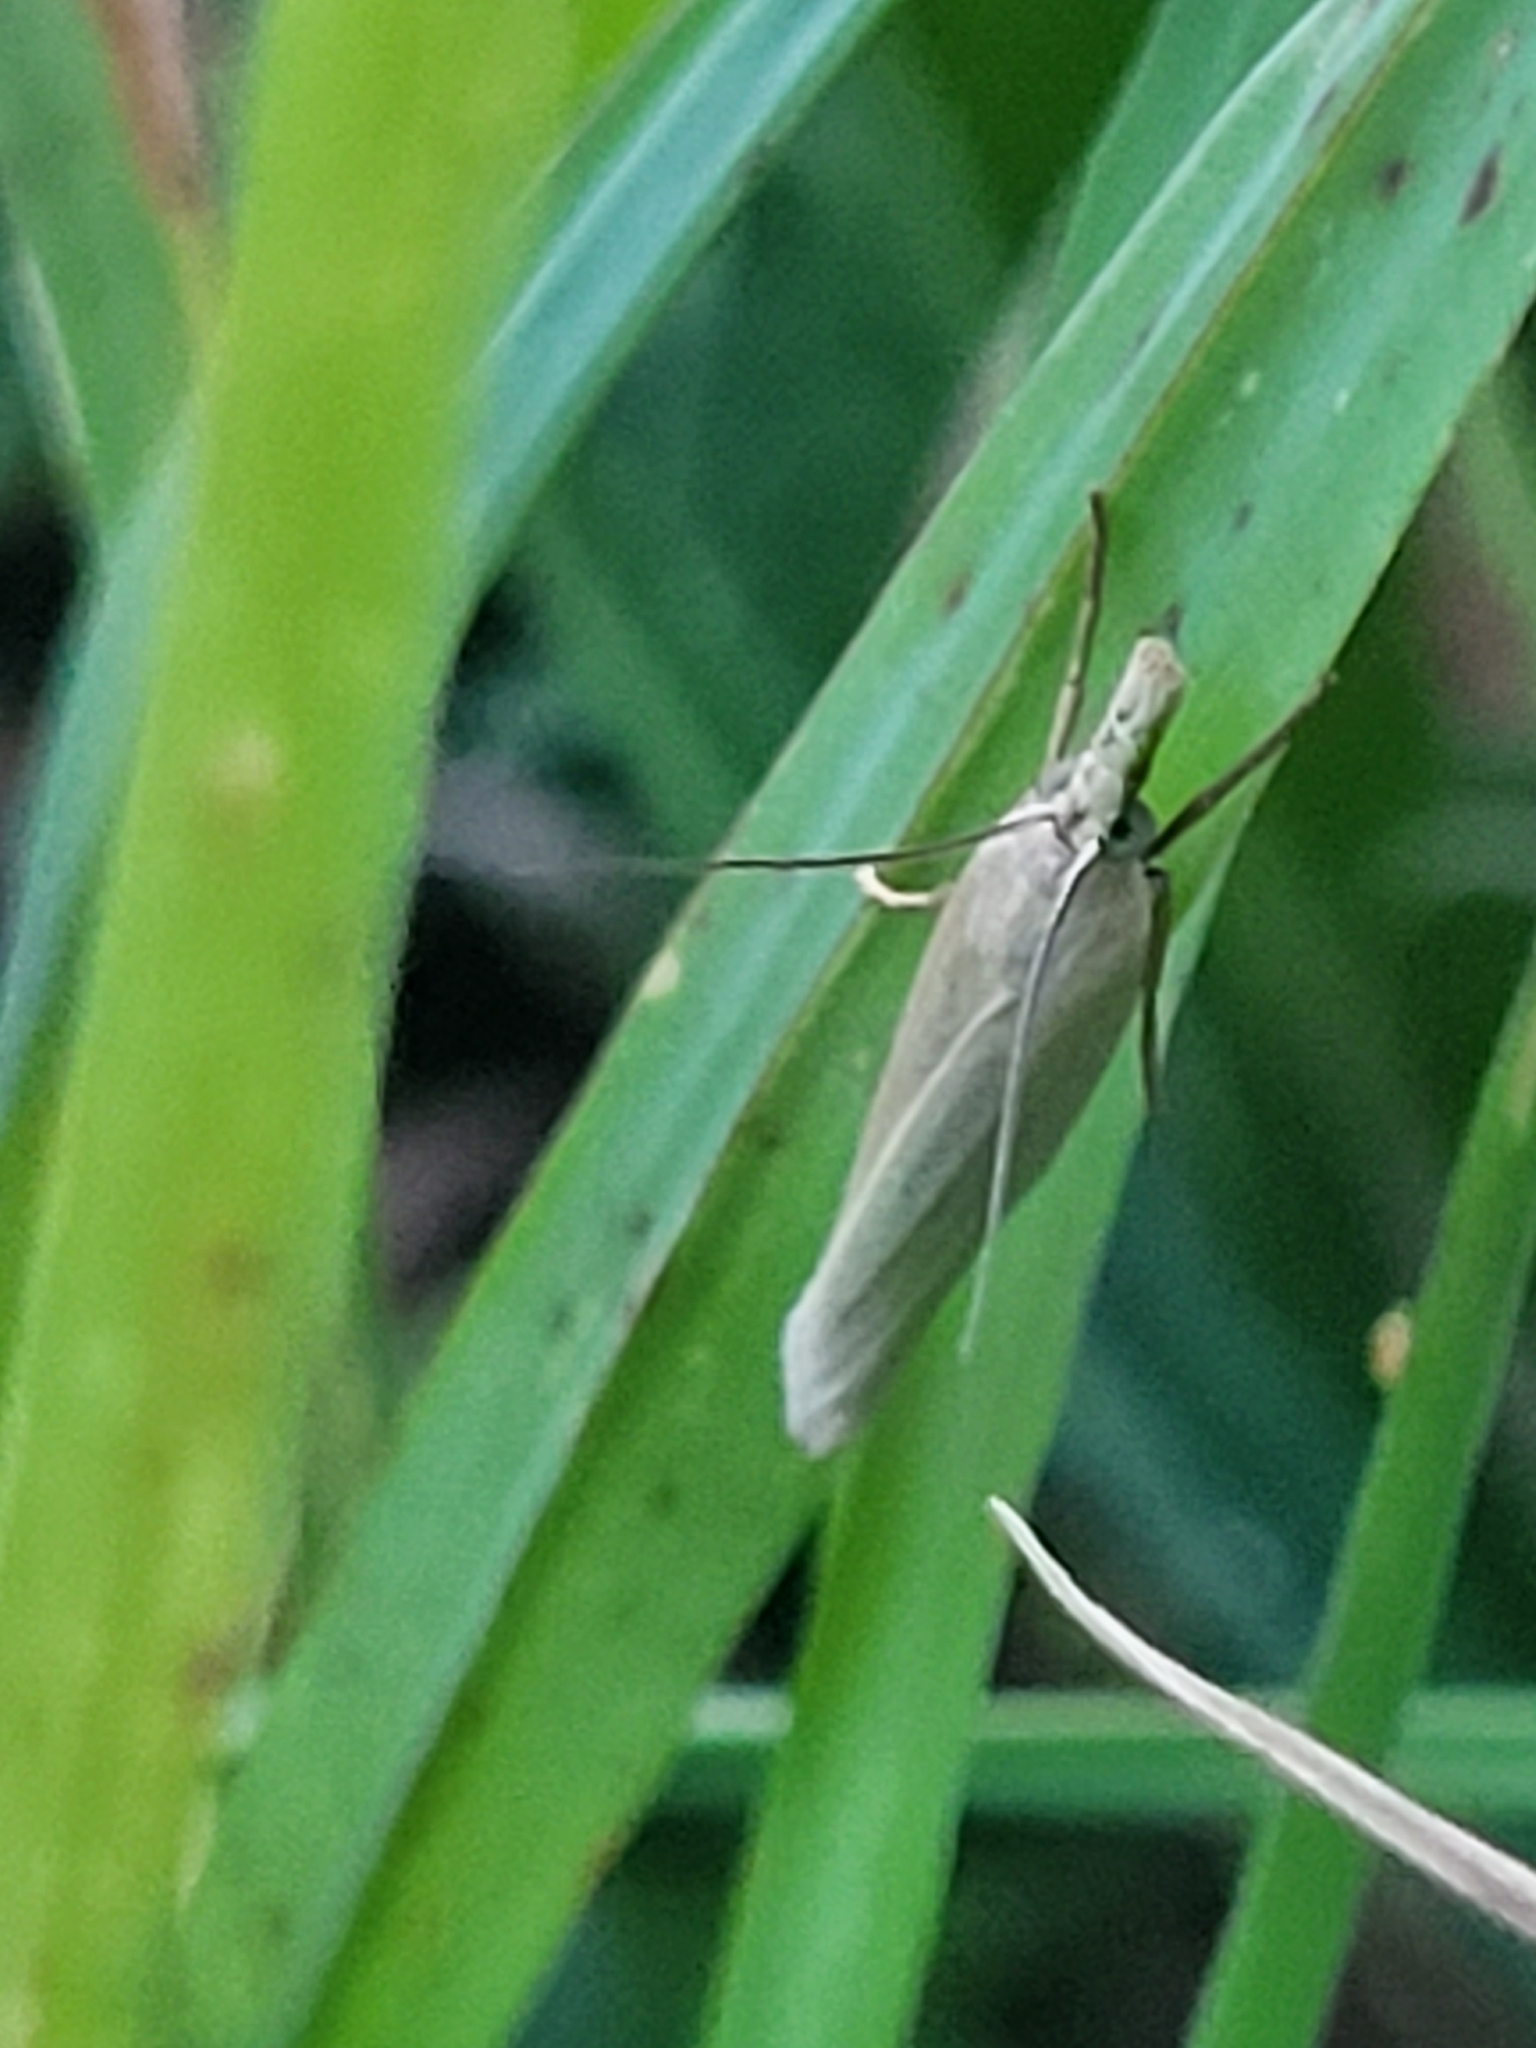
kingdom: Animalia
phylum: Arthropoda
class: Insecta
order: Lepidoptera
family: Crambidae
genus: Crambus
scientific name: Crambus perlellus
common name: Yellow satin veneer
